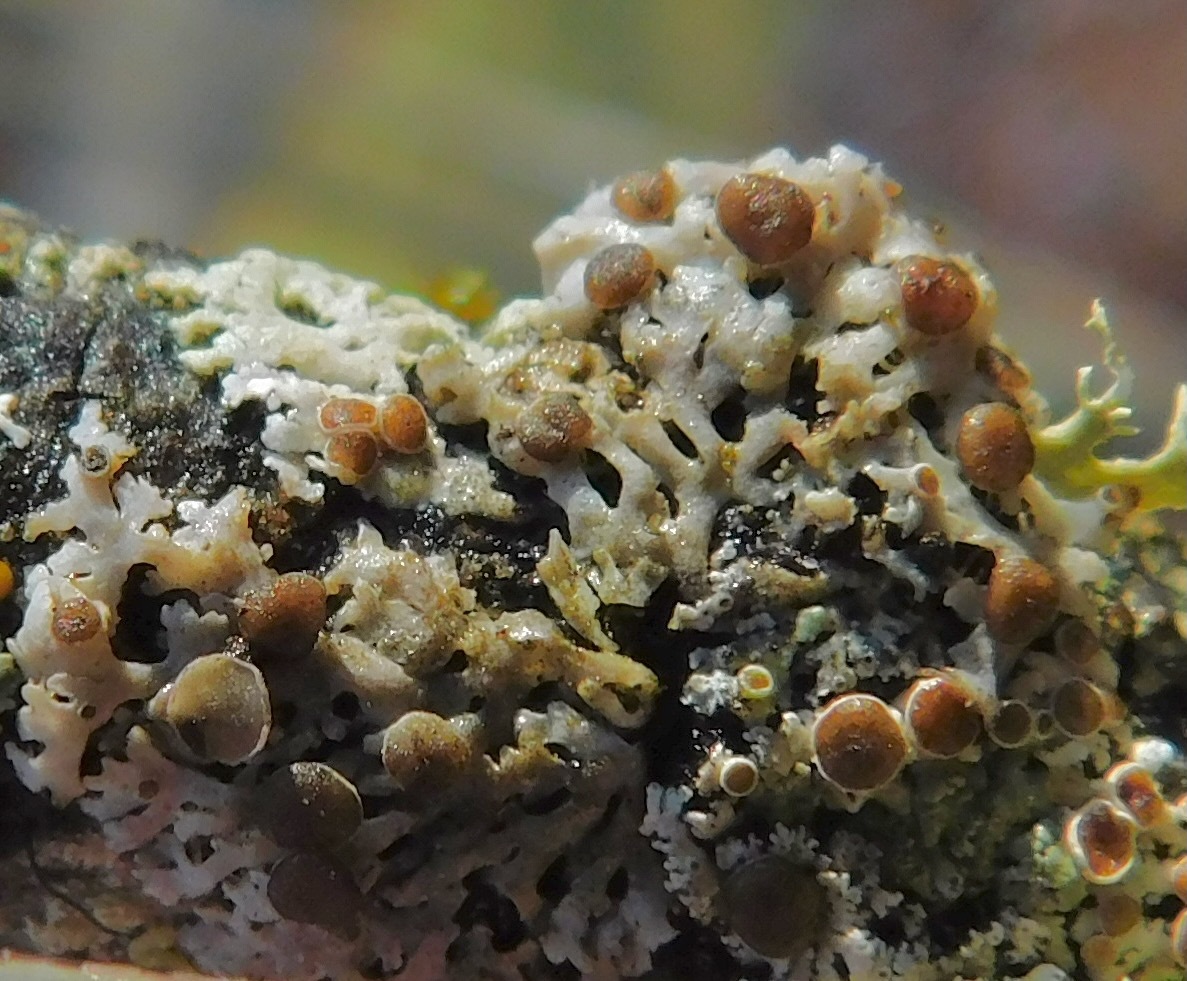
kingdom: Fungi
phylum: Ascomycota
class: Lecanoromycetes
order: Caliciales
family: Physciaceae
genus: Kurokawia
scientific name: Kurokawia palmulata
